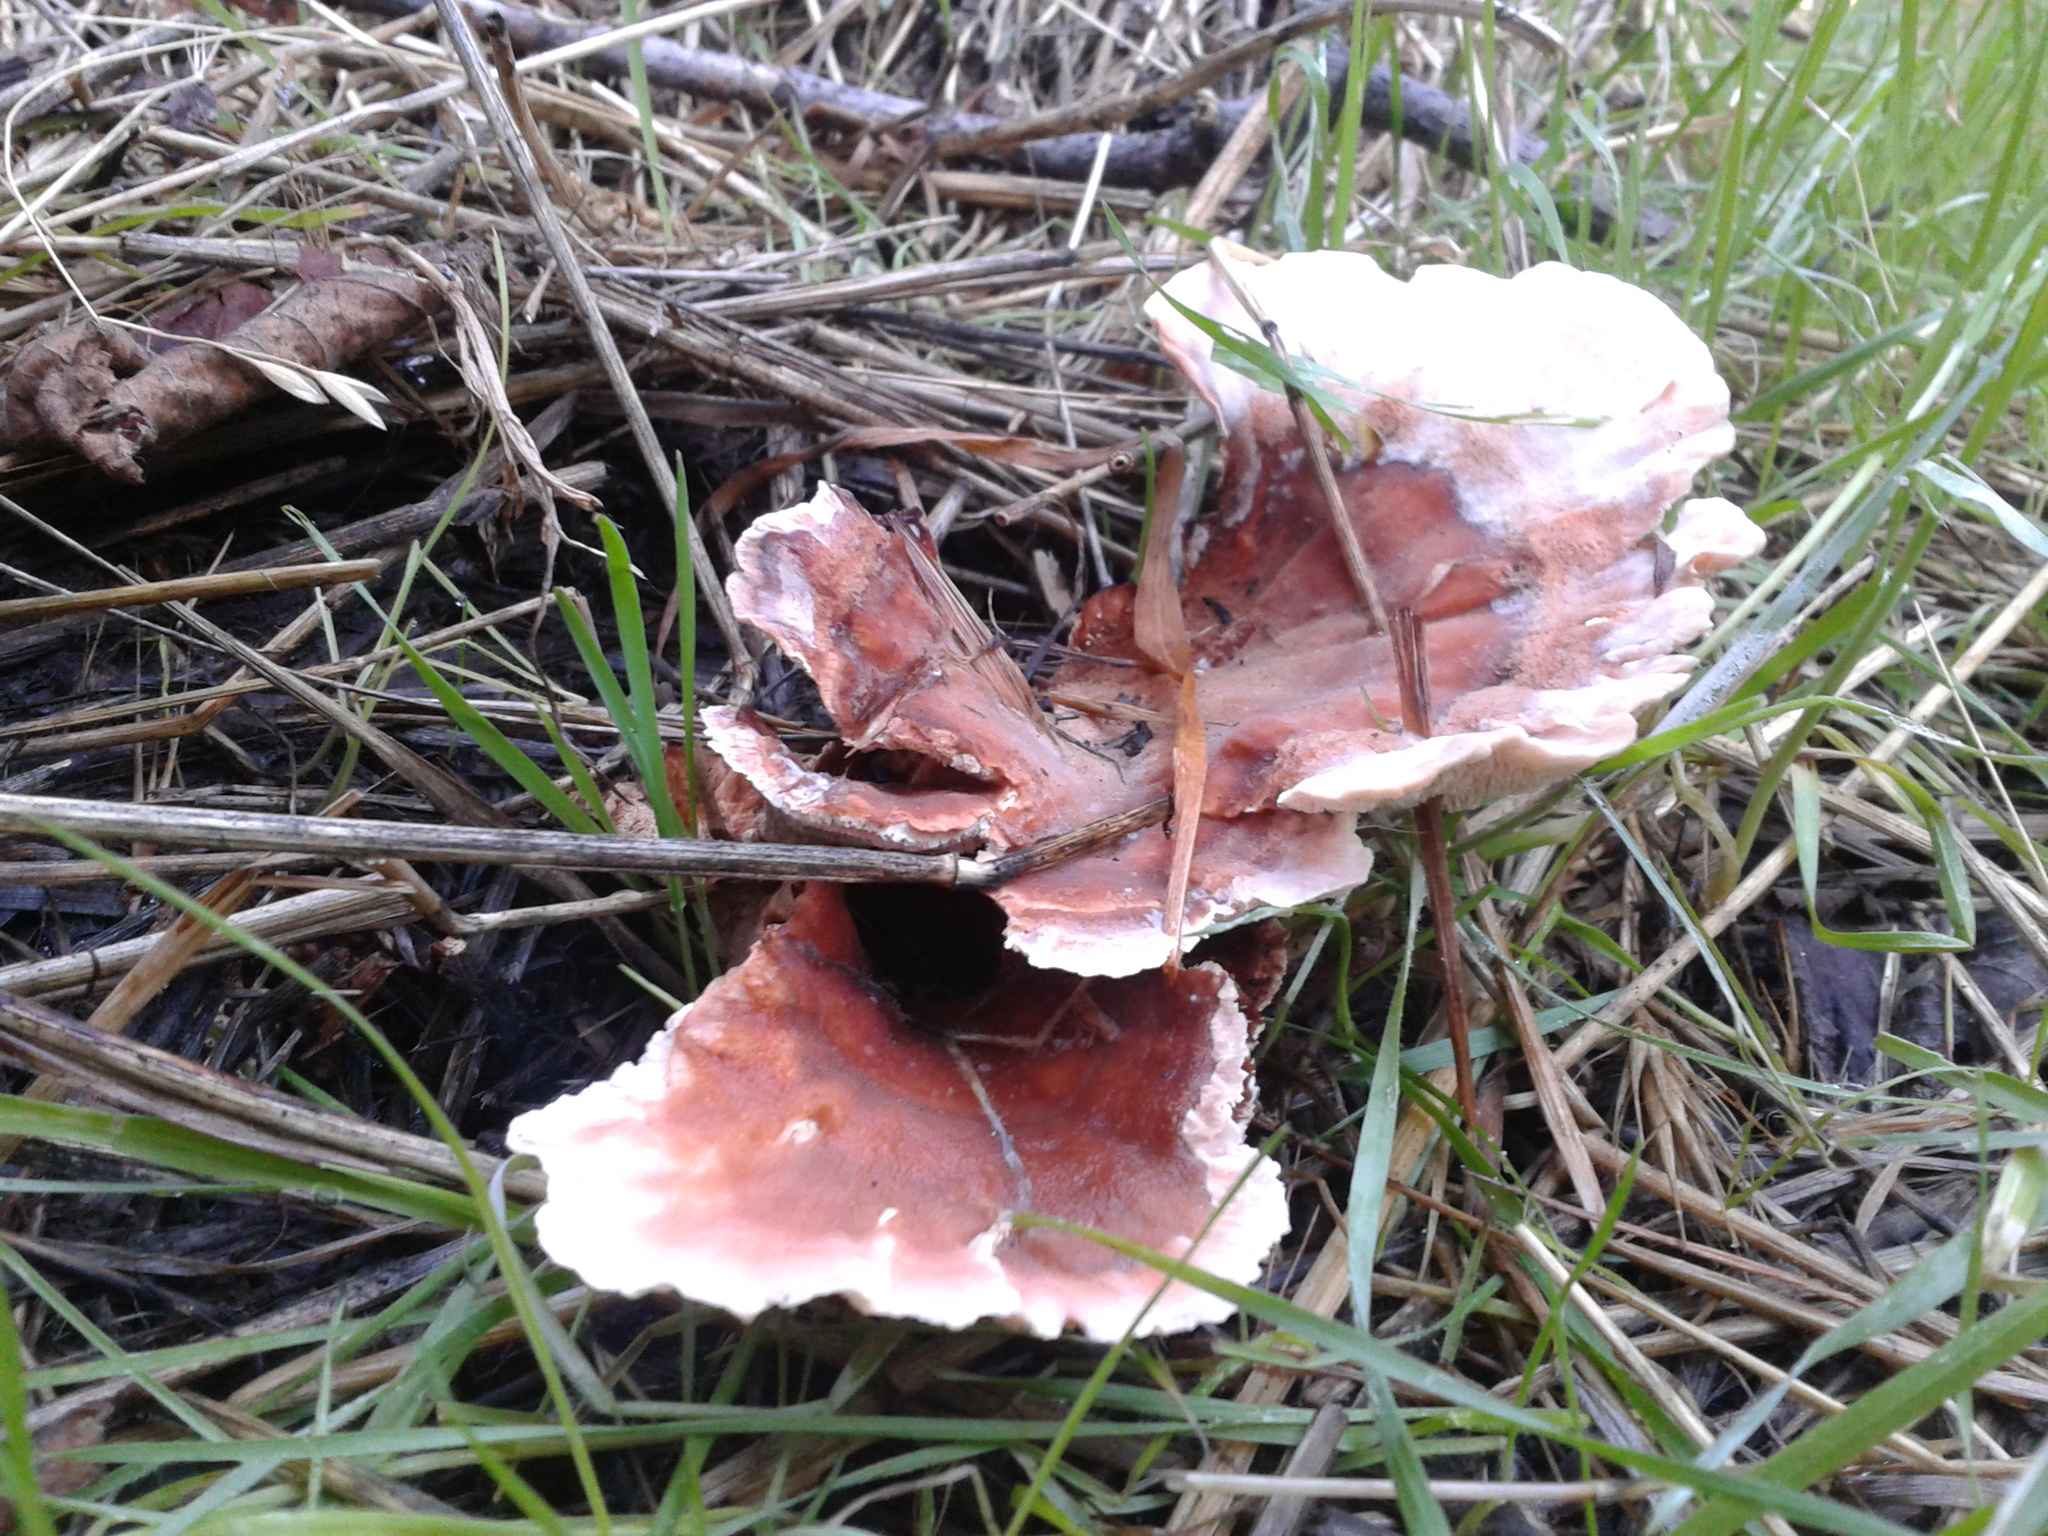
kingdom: Fungi
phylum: Basidiomycota
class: Agaricomycetes
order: Polyporales
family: Podoscyphaceae
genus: Abortiporus
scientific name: Abortiporus biennis
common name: Blushing rosette
